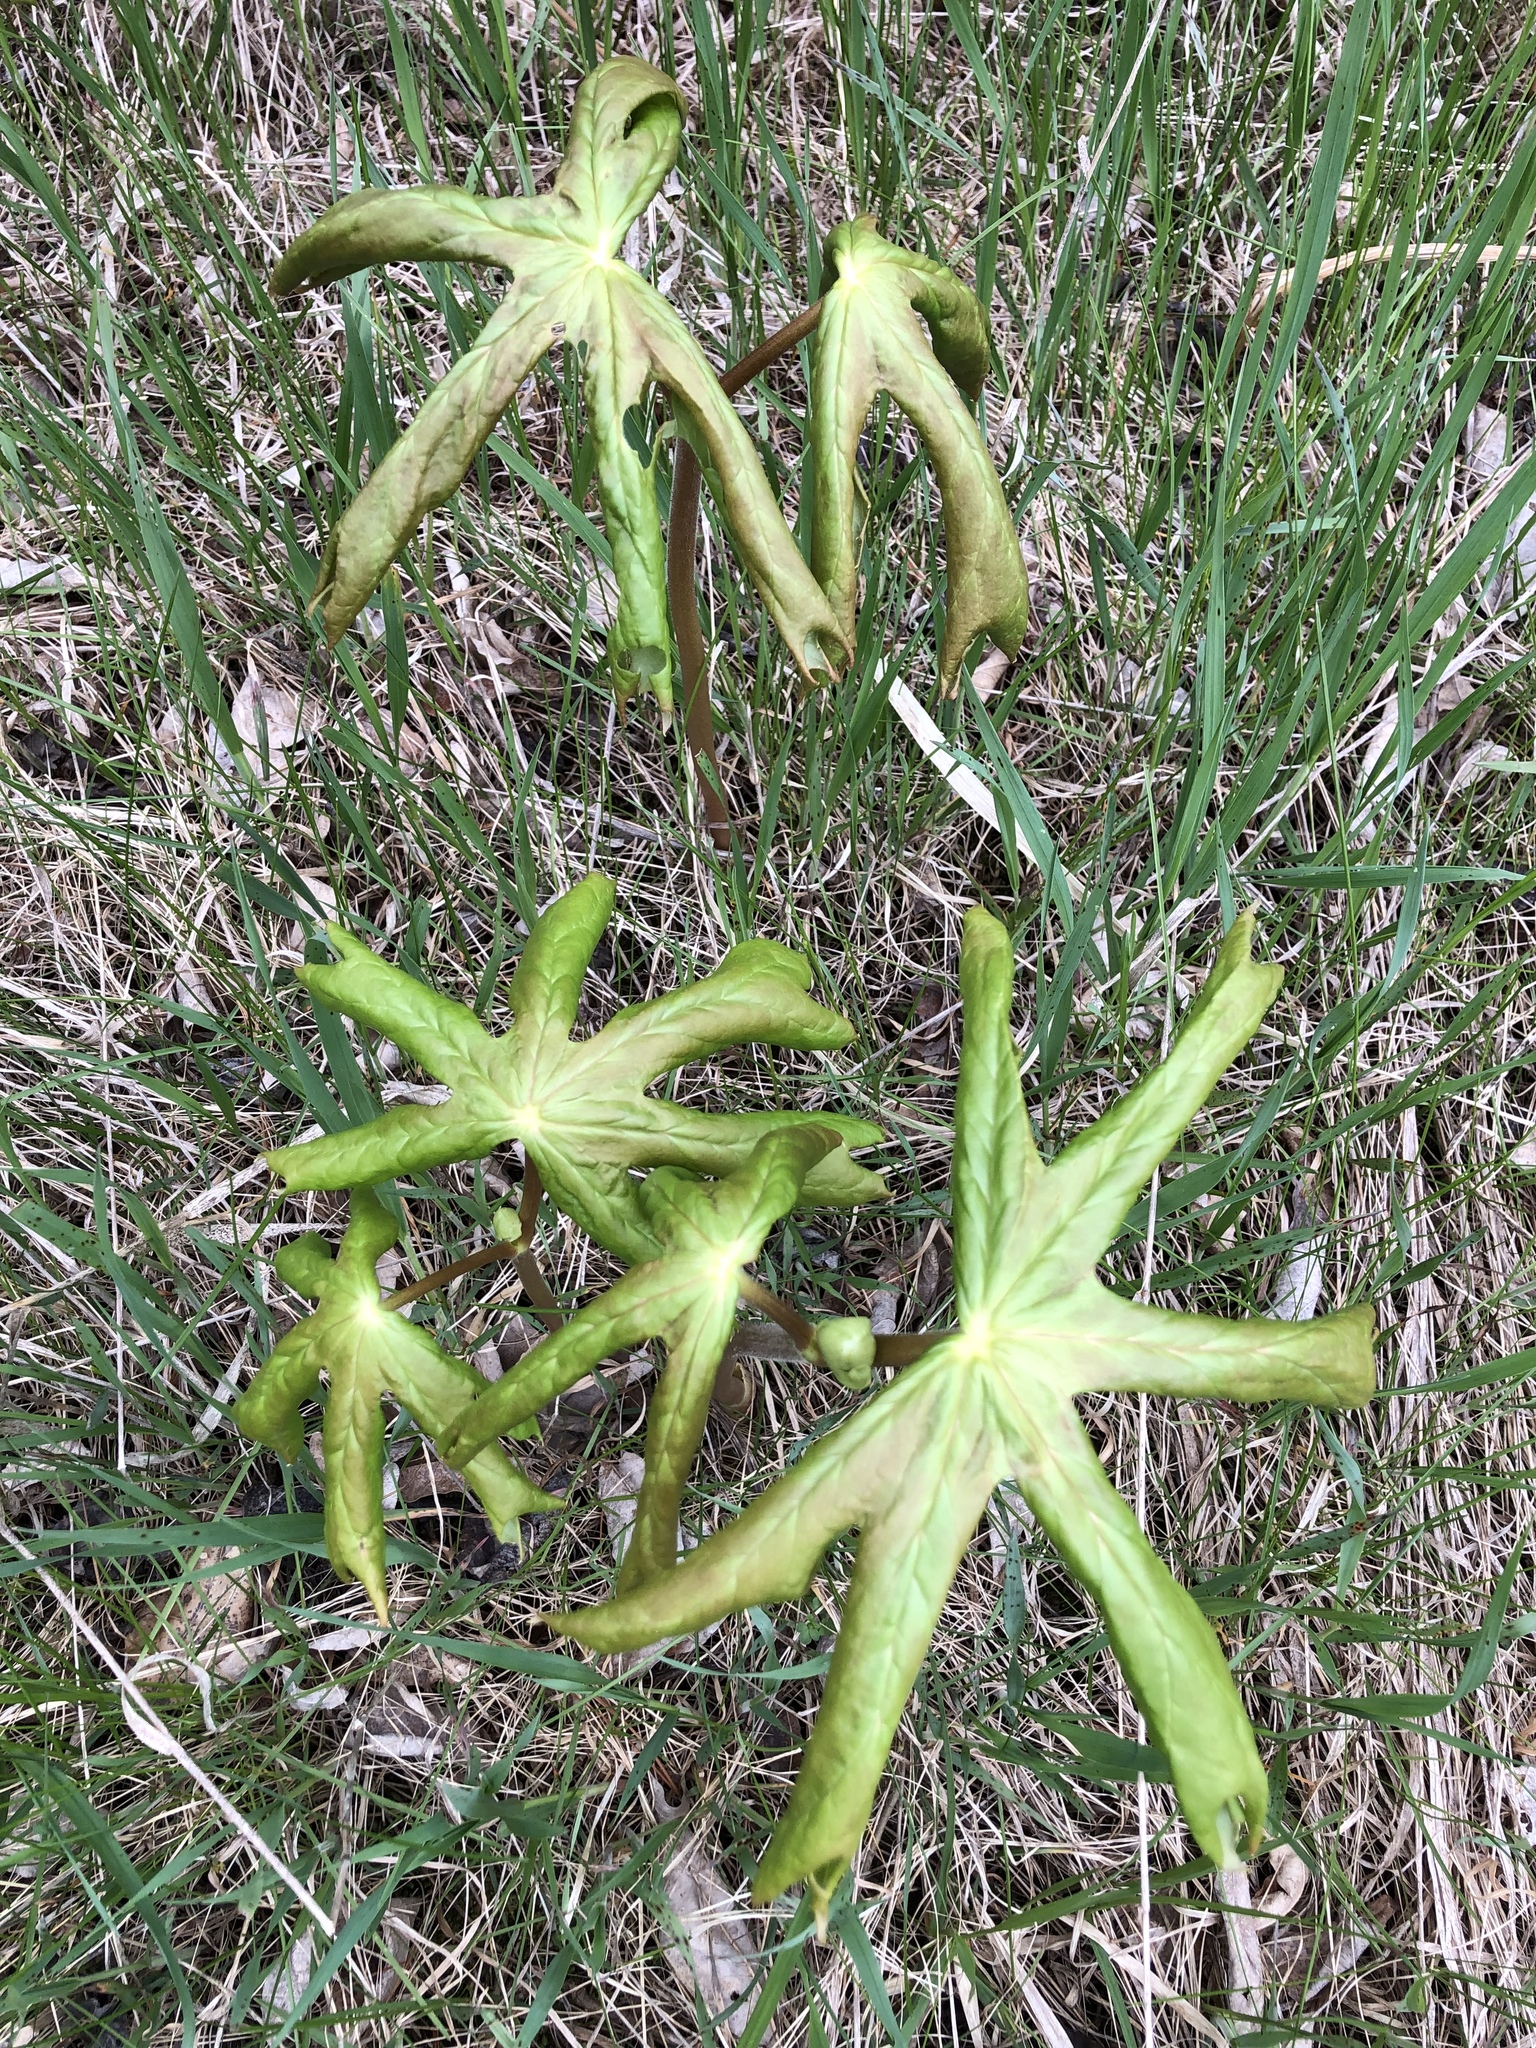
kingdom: Plantae
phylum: Tracheophyta
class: Magnoliopsida
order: Ranunculales
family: Berberidaceae
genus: Podophyllum
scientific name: Podophyllum peltatum
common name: Wild mandrake
